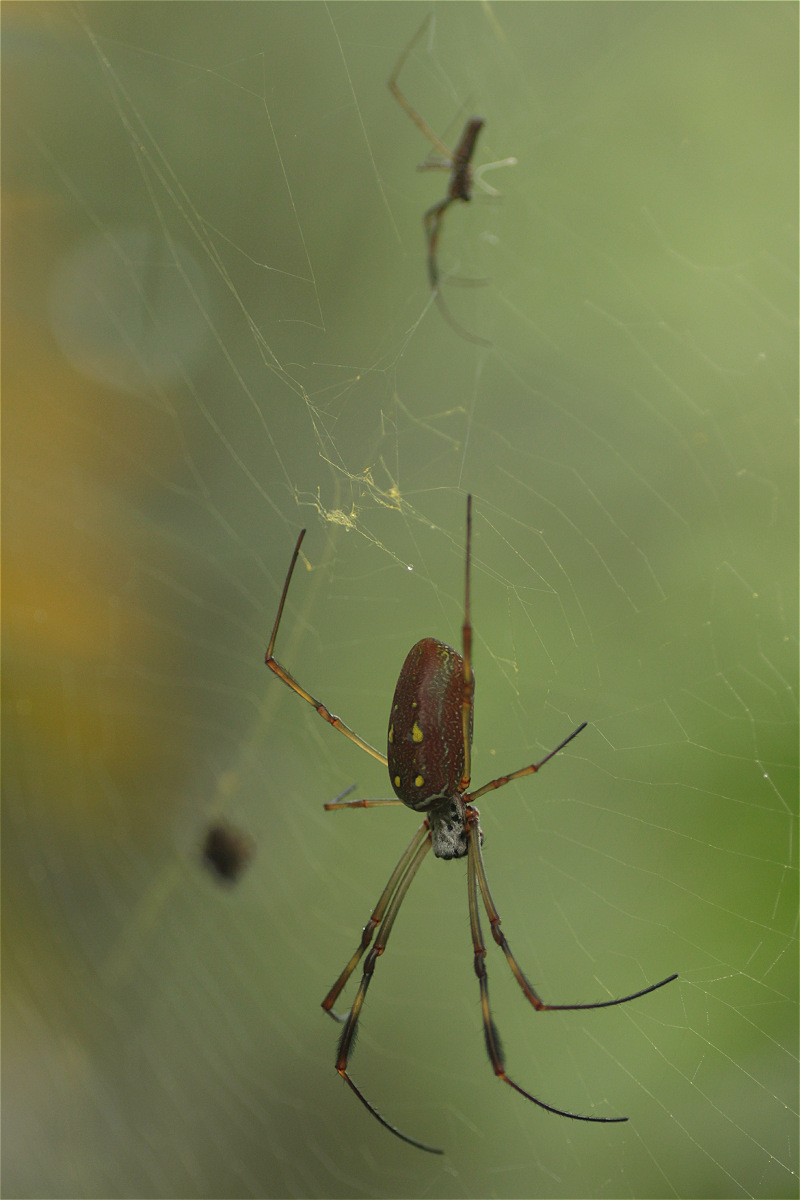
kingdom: Animalia
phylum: Arthropoda
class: Arachnida
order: Araneae
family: Araneidae
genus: Trichonephila
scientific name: Trichonephila clavipes
